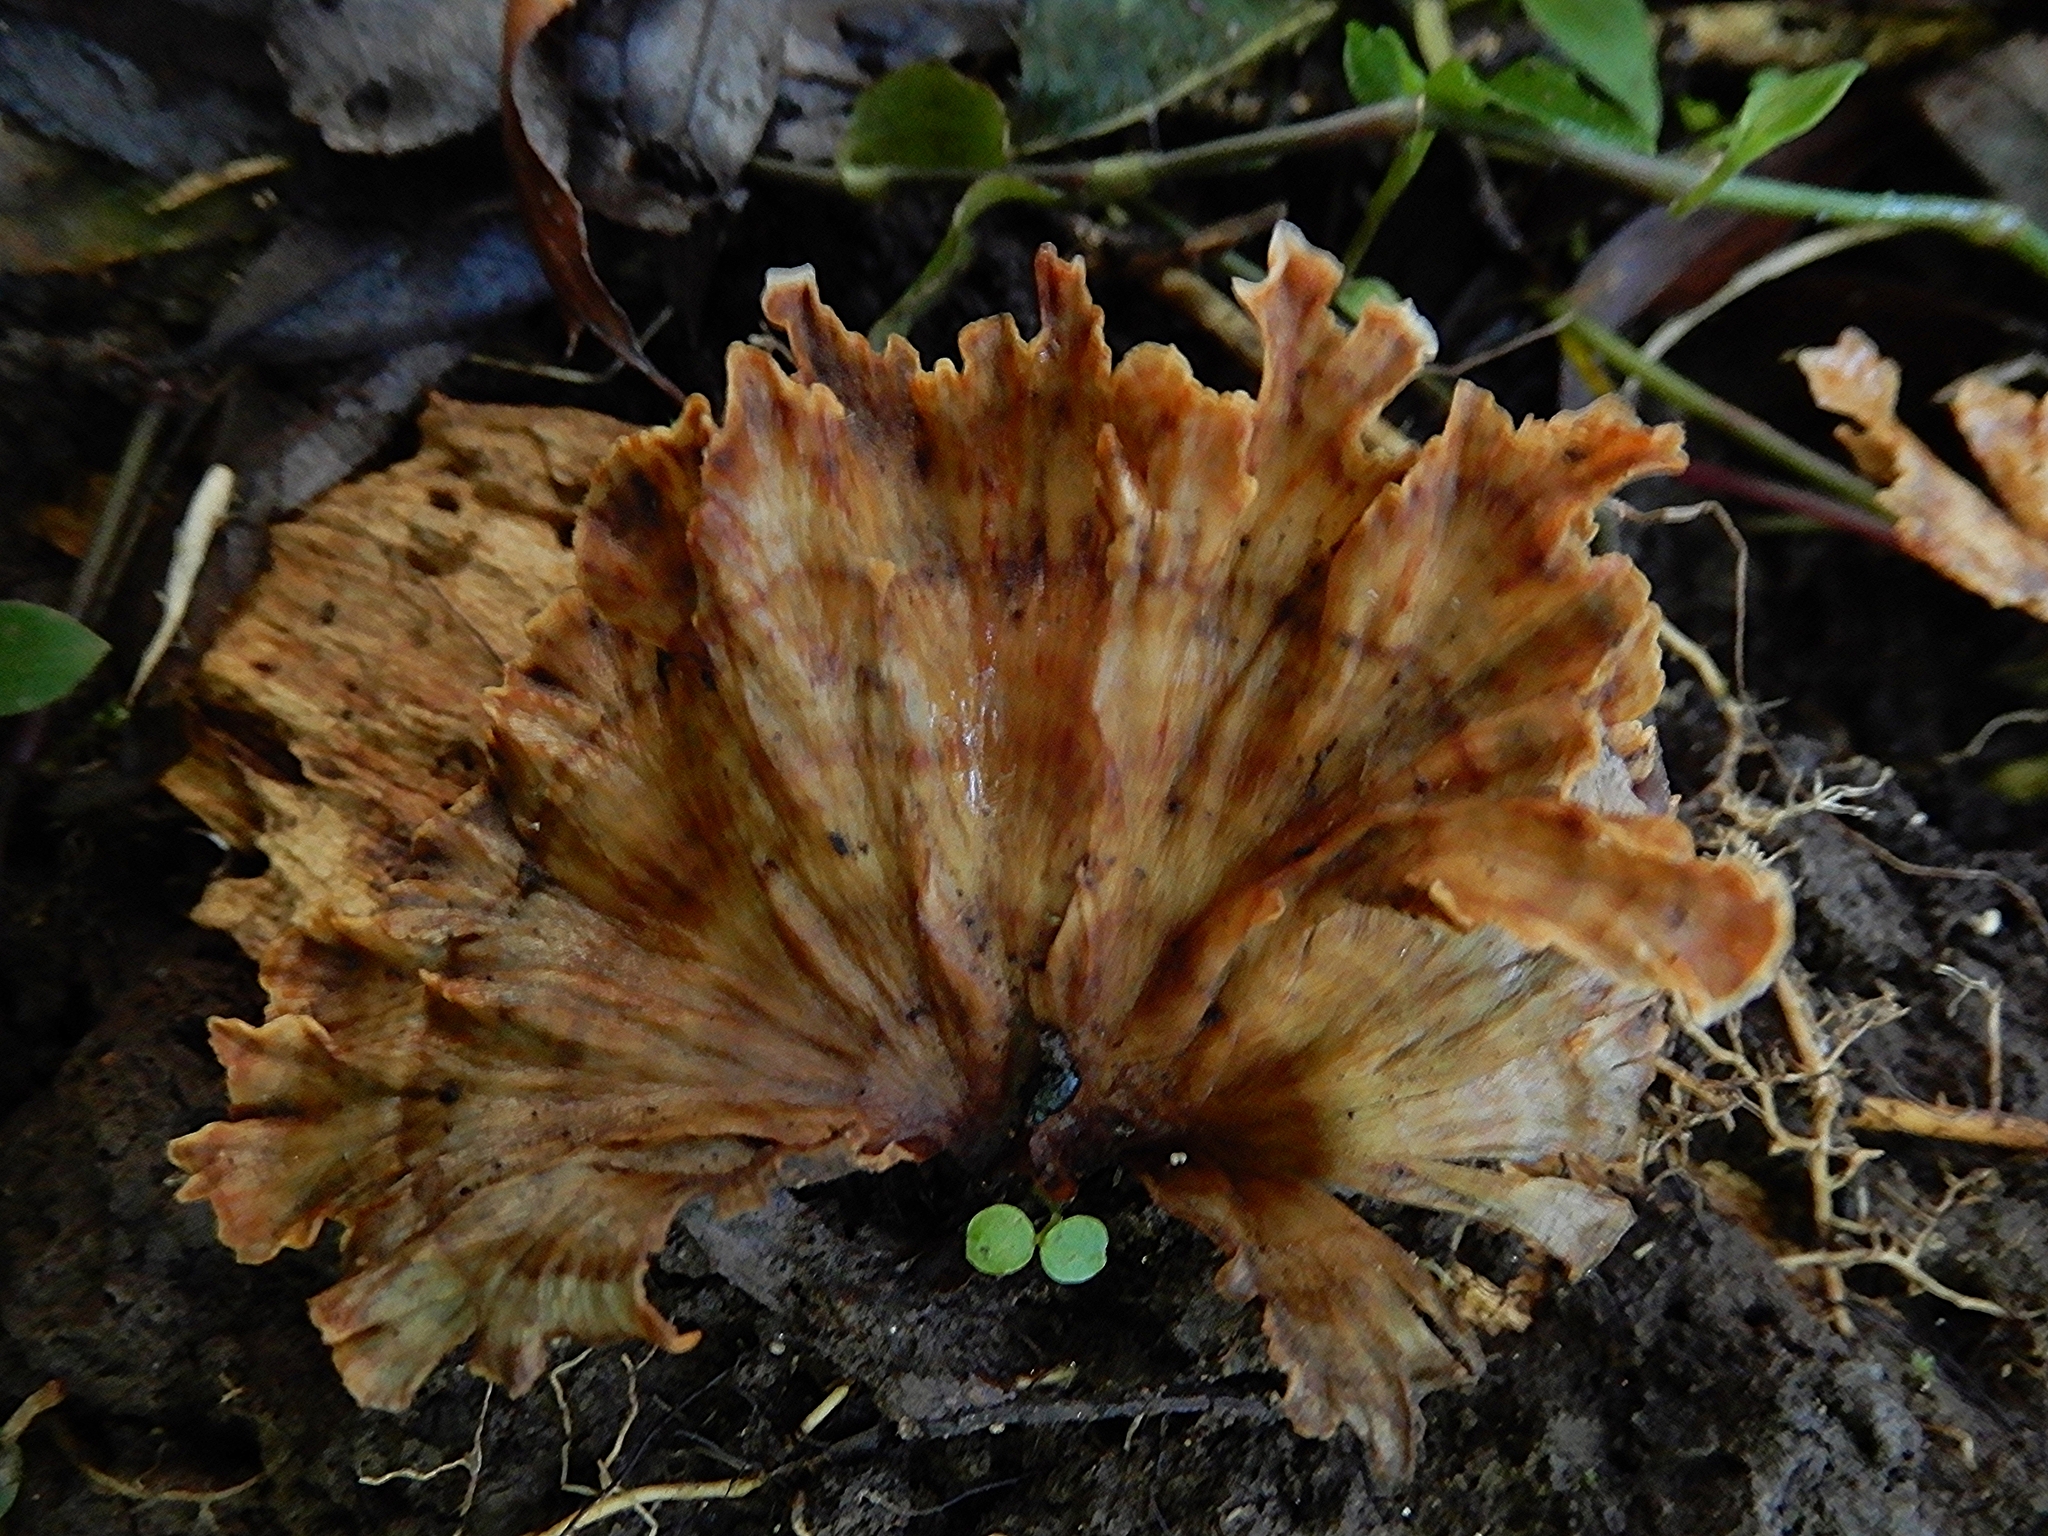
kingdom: Fungi
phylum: Basidiomycota
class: Agaricomycetes
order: Polyporales
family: Podoscyphaceae
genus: Podoscypha
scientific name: Podoscypha petalodes
